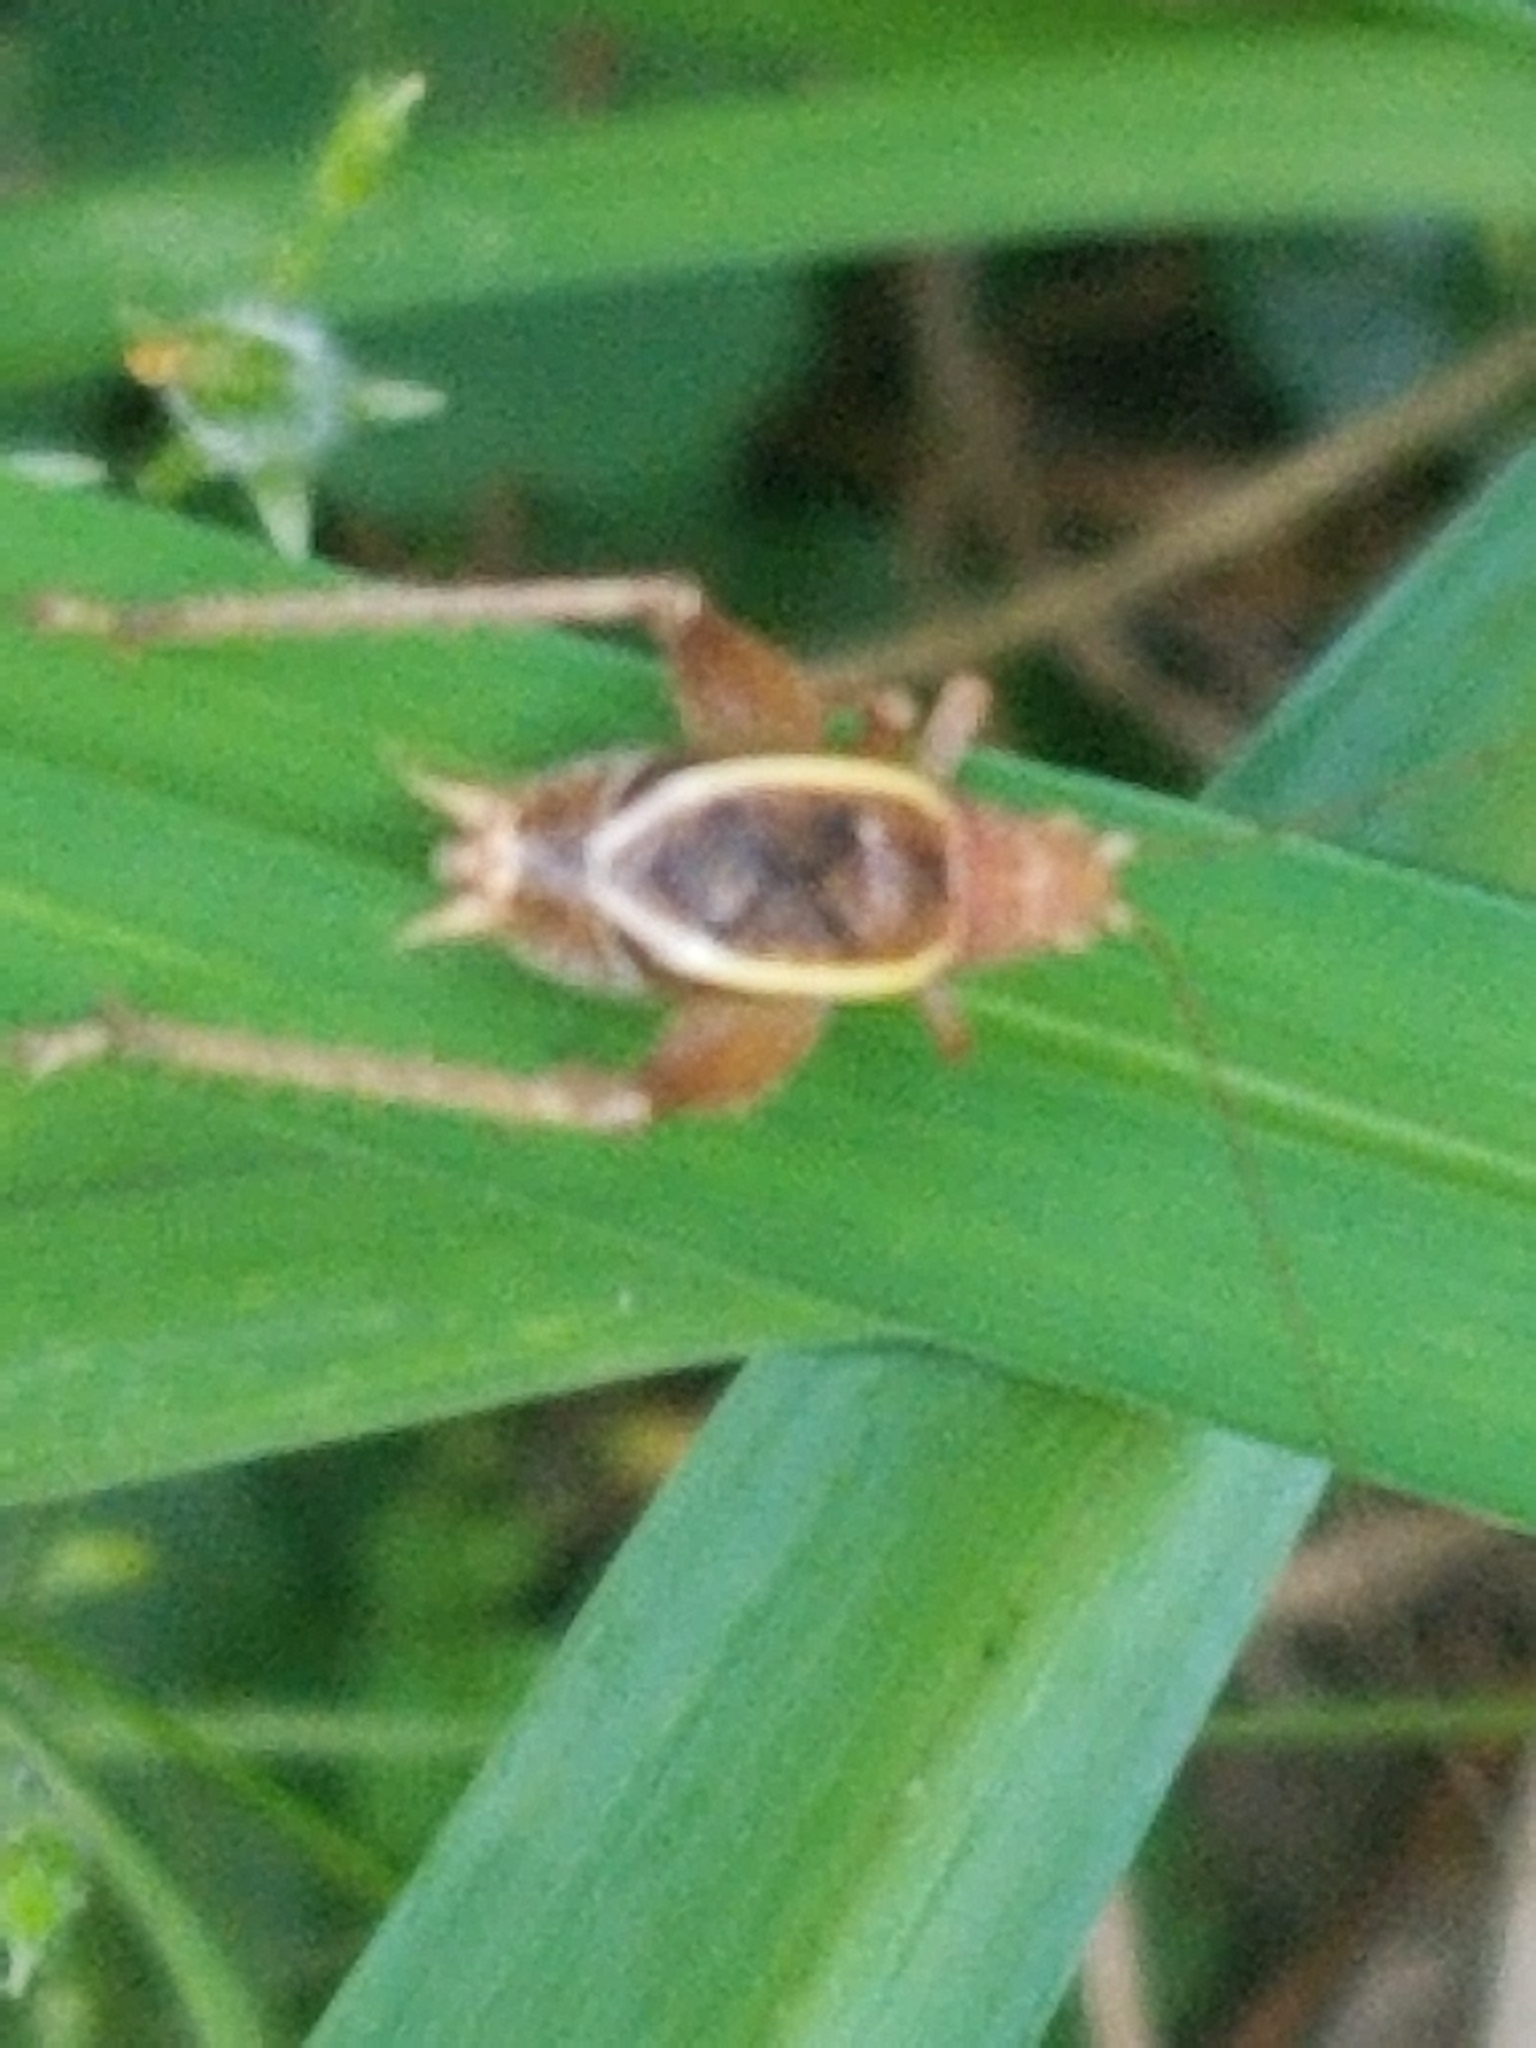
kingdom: Animalia
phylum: Arthropoda
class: Insecta
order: Orthoptera
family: Gryllidae
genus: Hapithus
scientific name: Hapithus agitator
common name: Restless bush cricket
